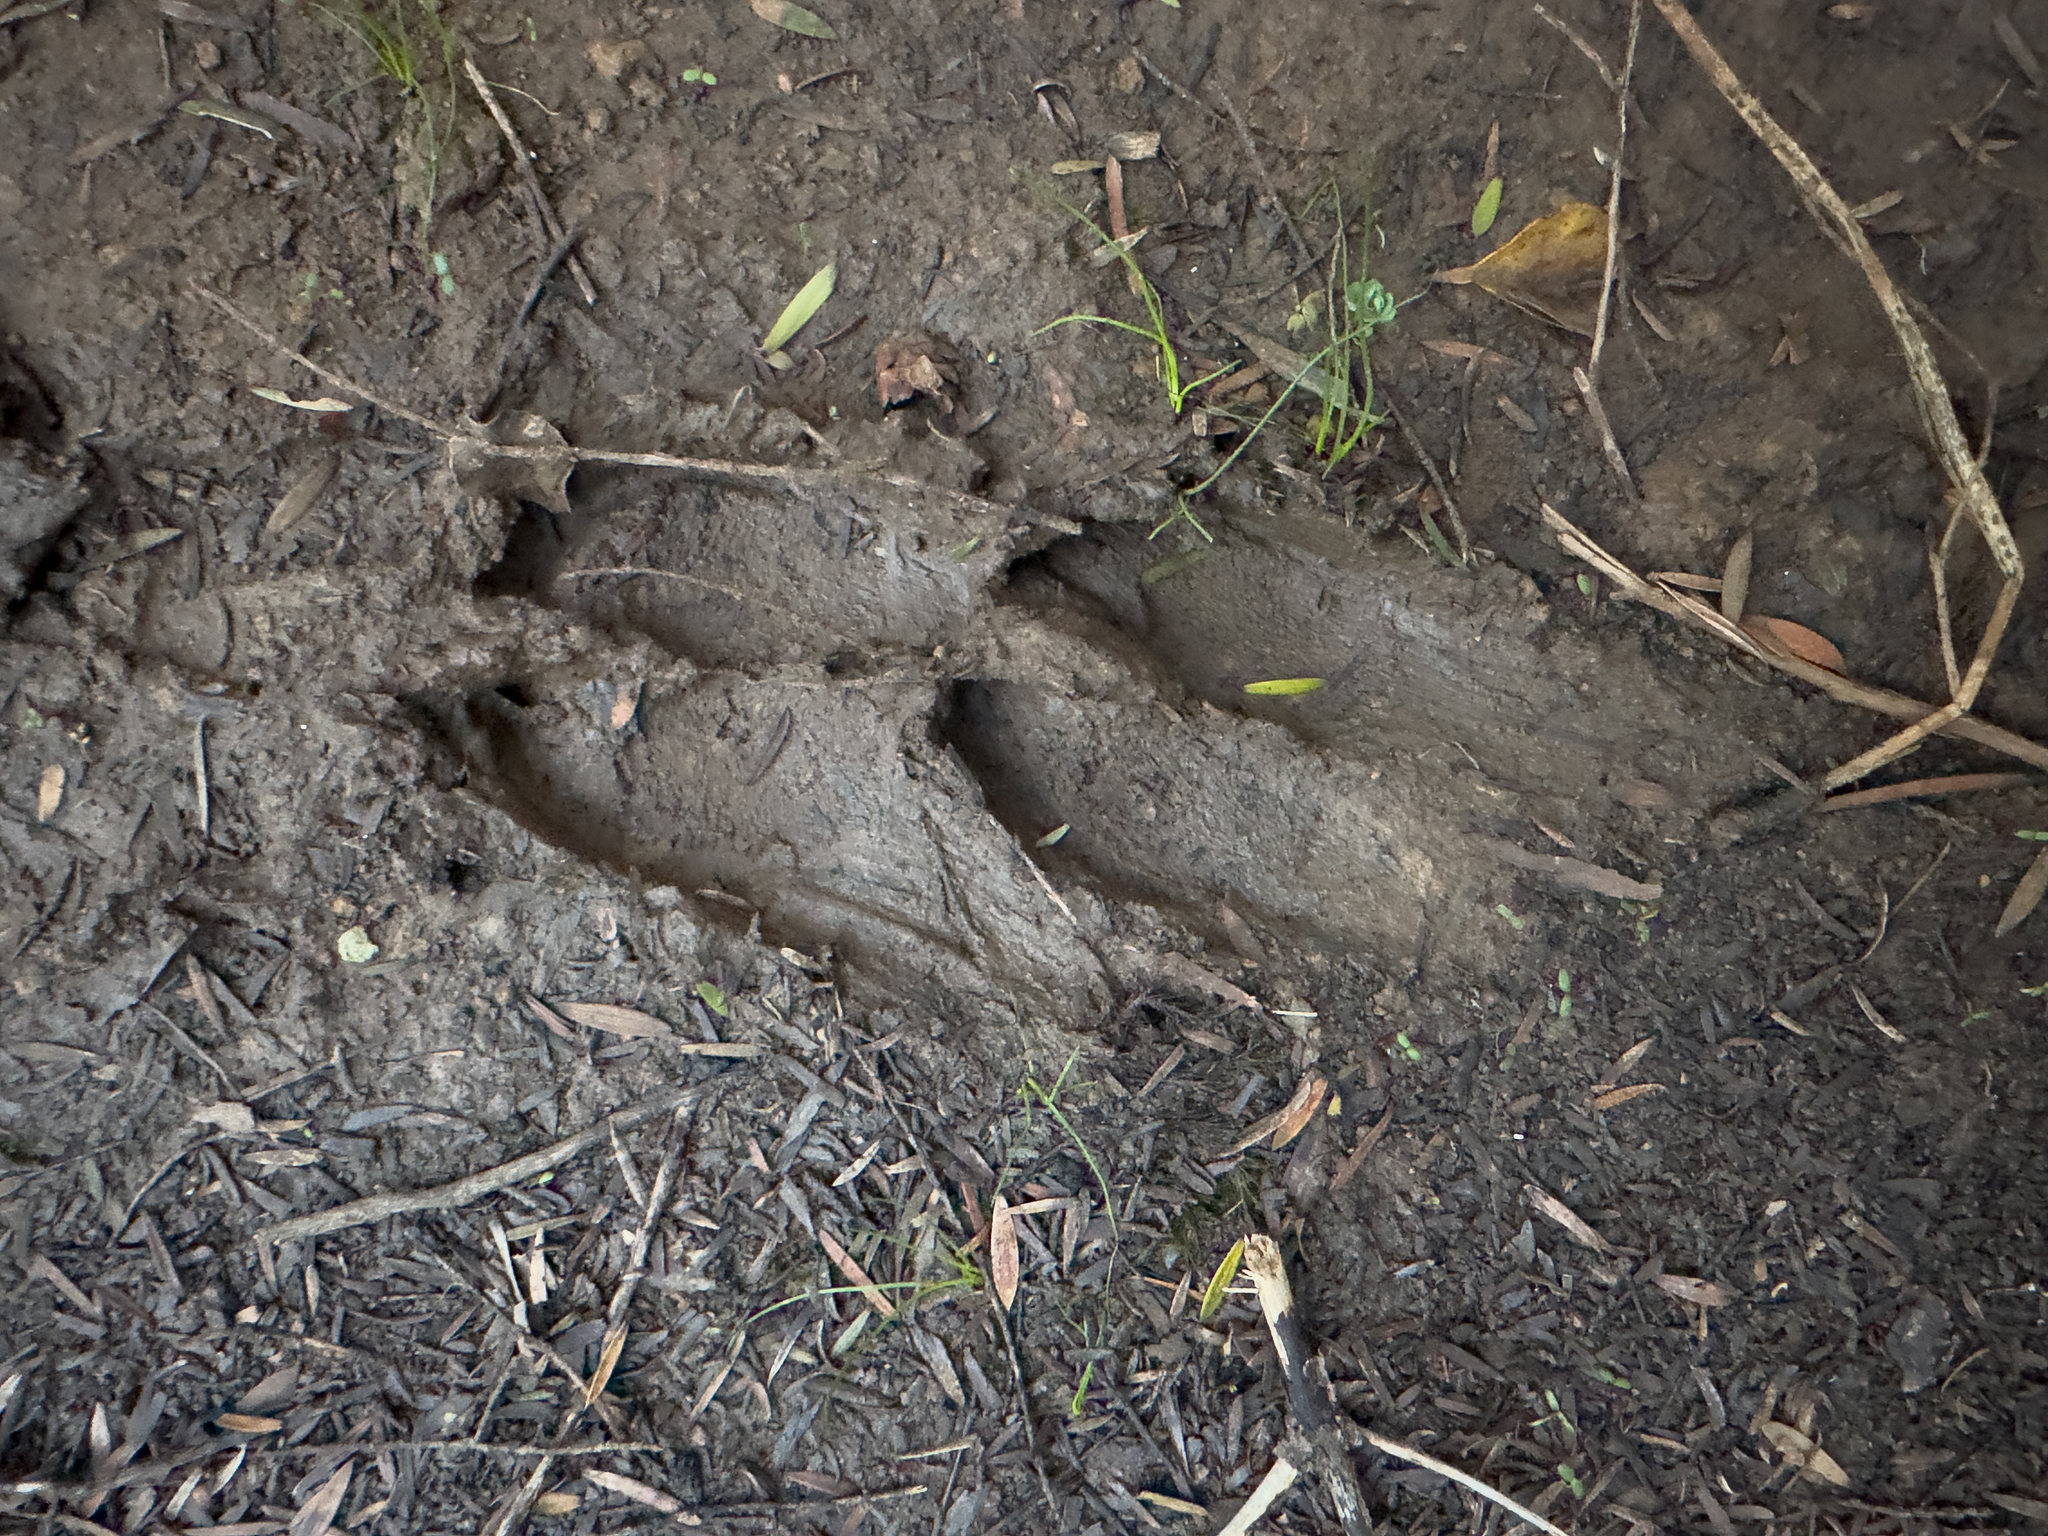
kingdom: Animalia
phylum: Chordata
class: Mammalia
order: Artiodactyla
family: Suidae
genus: Sus
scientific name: Sus scrofa
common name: Wild boar
